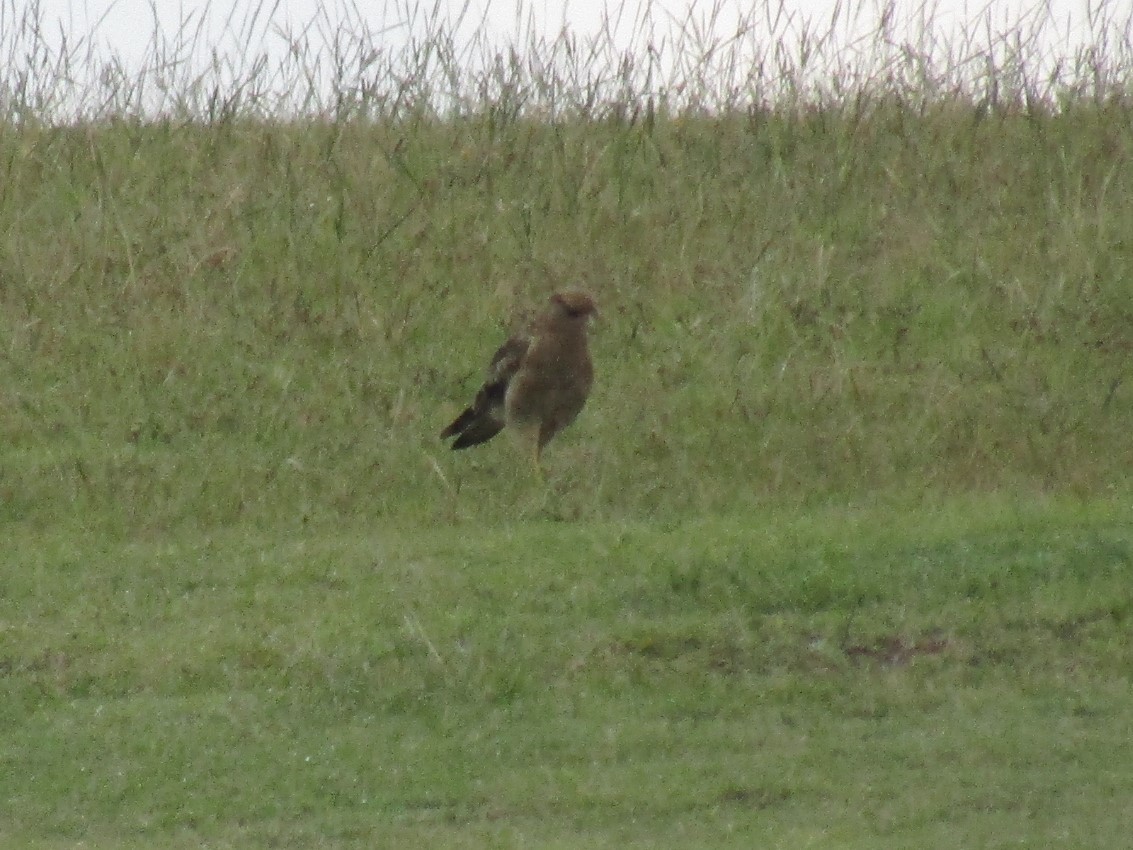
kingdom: Animalia
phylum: Chordata
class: Aves
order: Falconiformes
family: Falconidae
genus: Daptrius
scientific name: Daptrius
